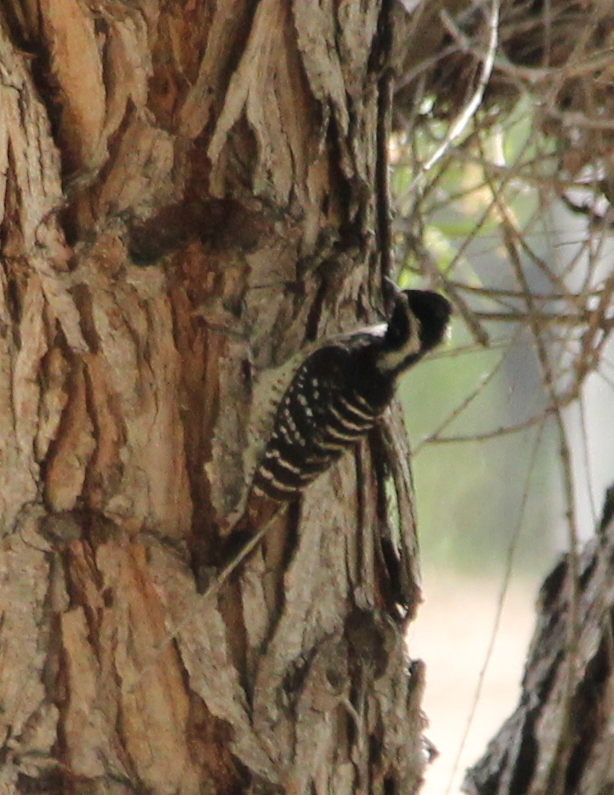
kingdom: Animalia
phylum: Chordata
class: Aves
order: Piciformes
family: Picidae
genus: Dryobates
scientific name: Dryobates nuttallii
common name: Nuttall's woodpecker
